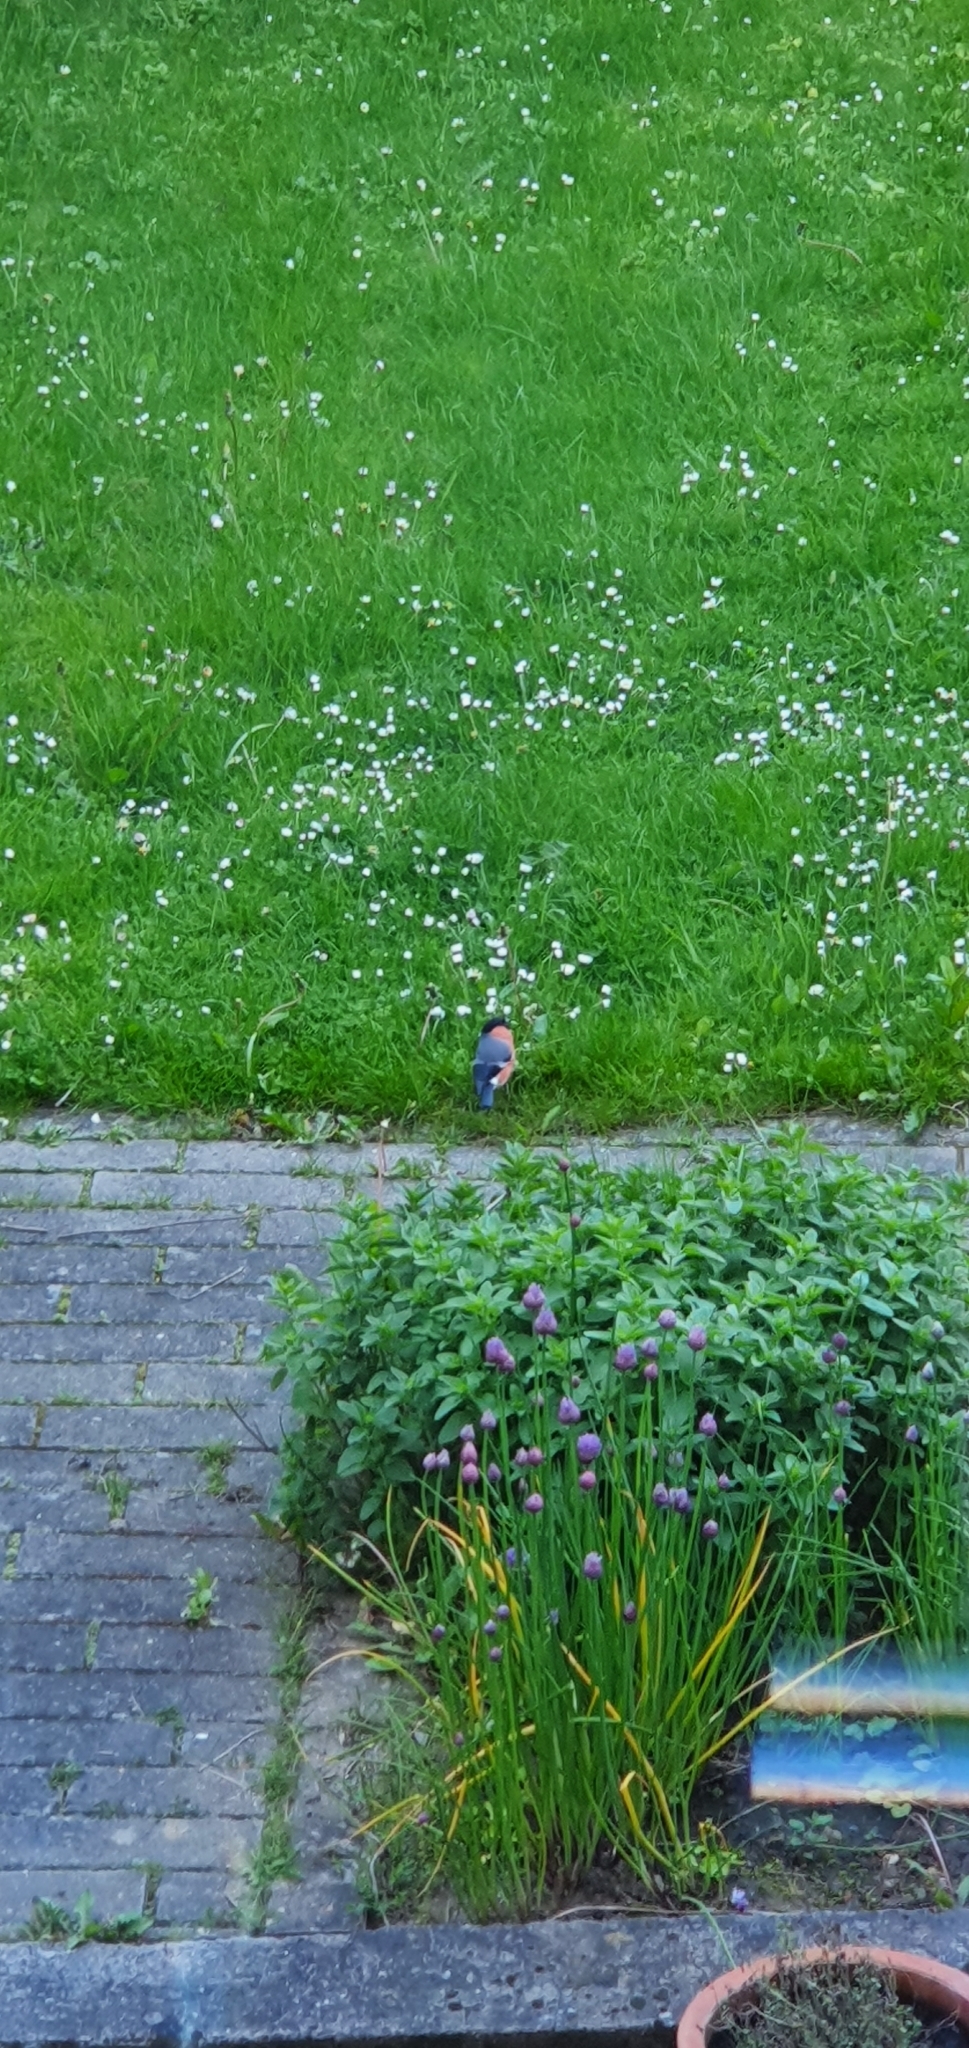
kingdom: Animalia
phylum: Chordata
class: Aves
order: Passeriformes
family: Fringillidae
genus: Pyrrhula
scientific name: Pyrrhula pyrrhula
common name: Eurasian bullfinch
